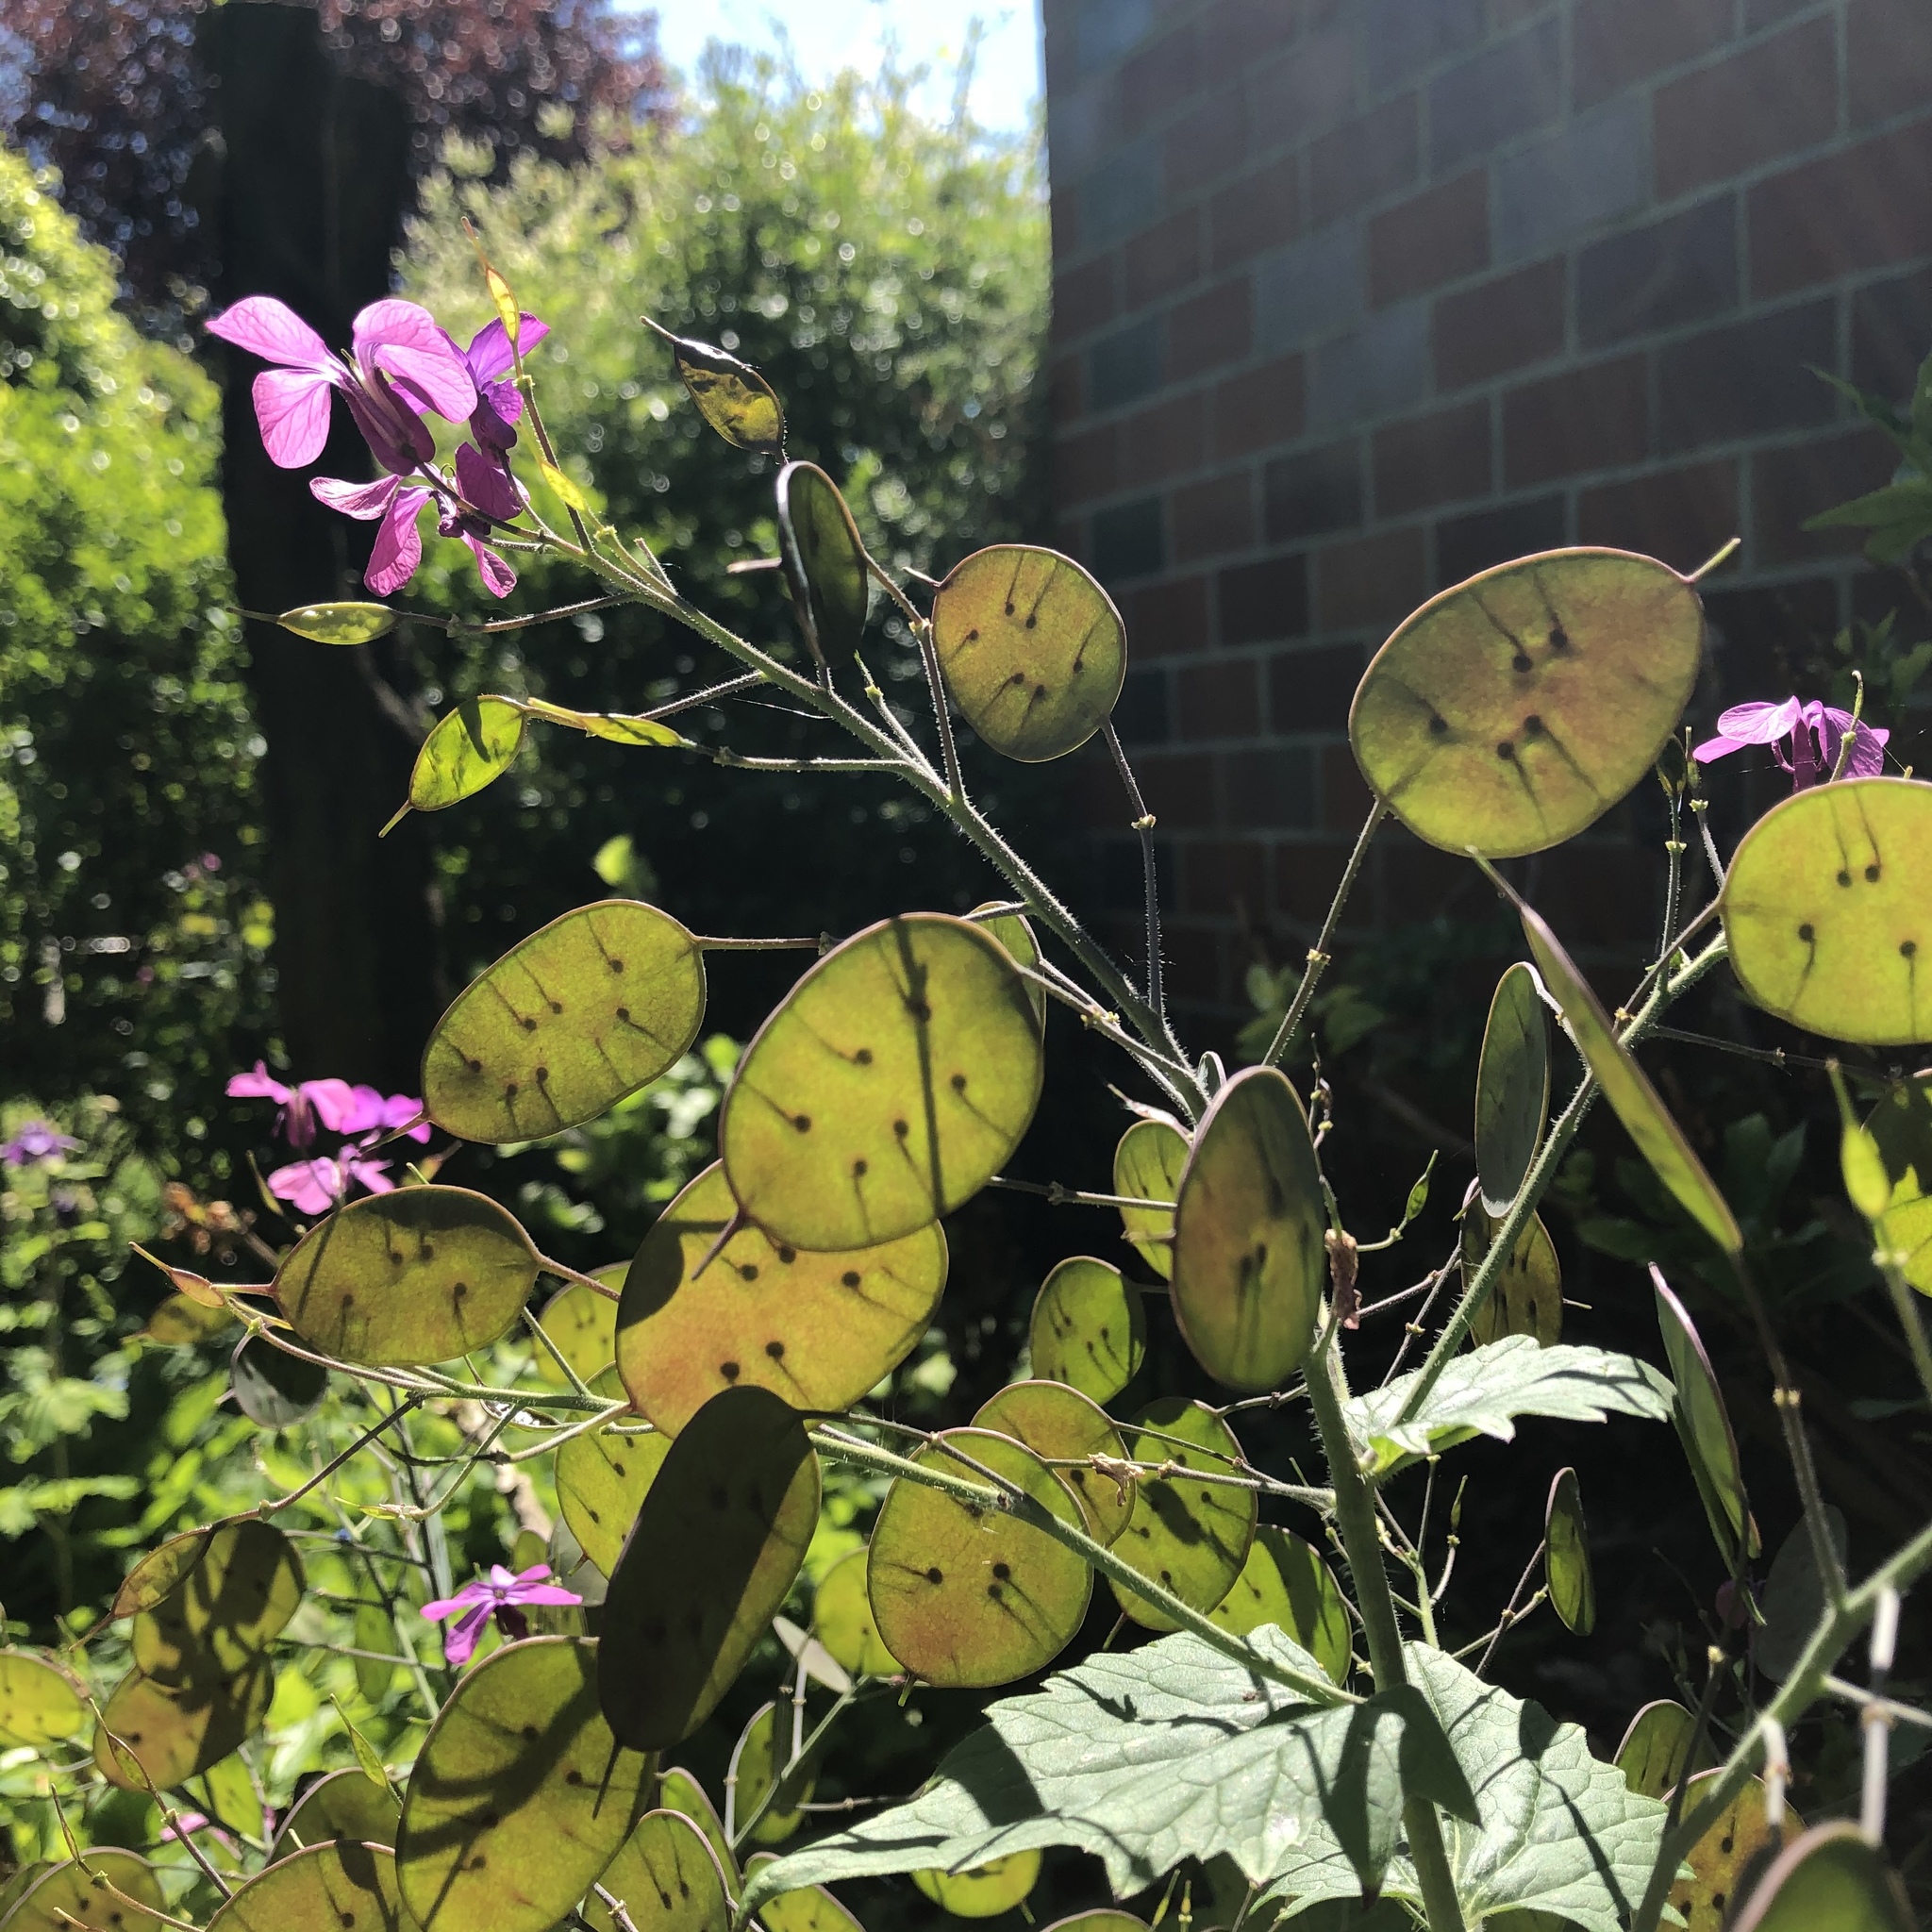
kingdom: Plantae
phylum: Tracheophyta
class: Magnoliopsida
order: Brassicales
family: Brassicaceae
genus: Lunaria
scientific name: Lunaria annua
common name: Honesty
